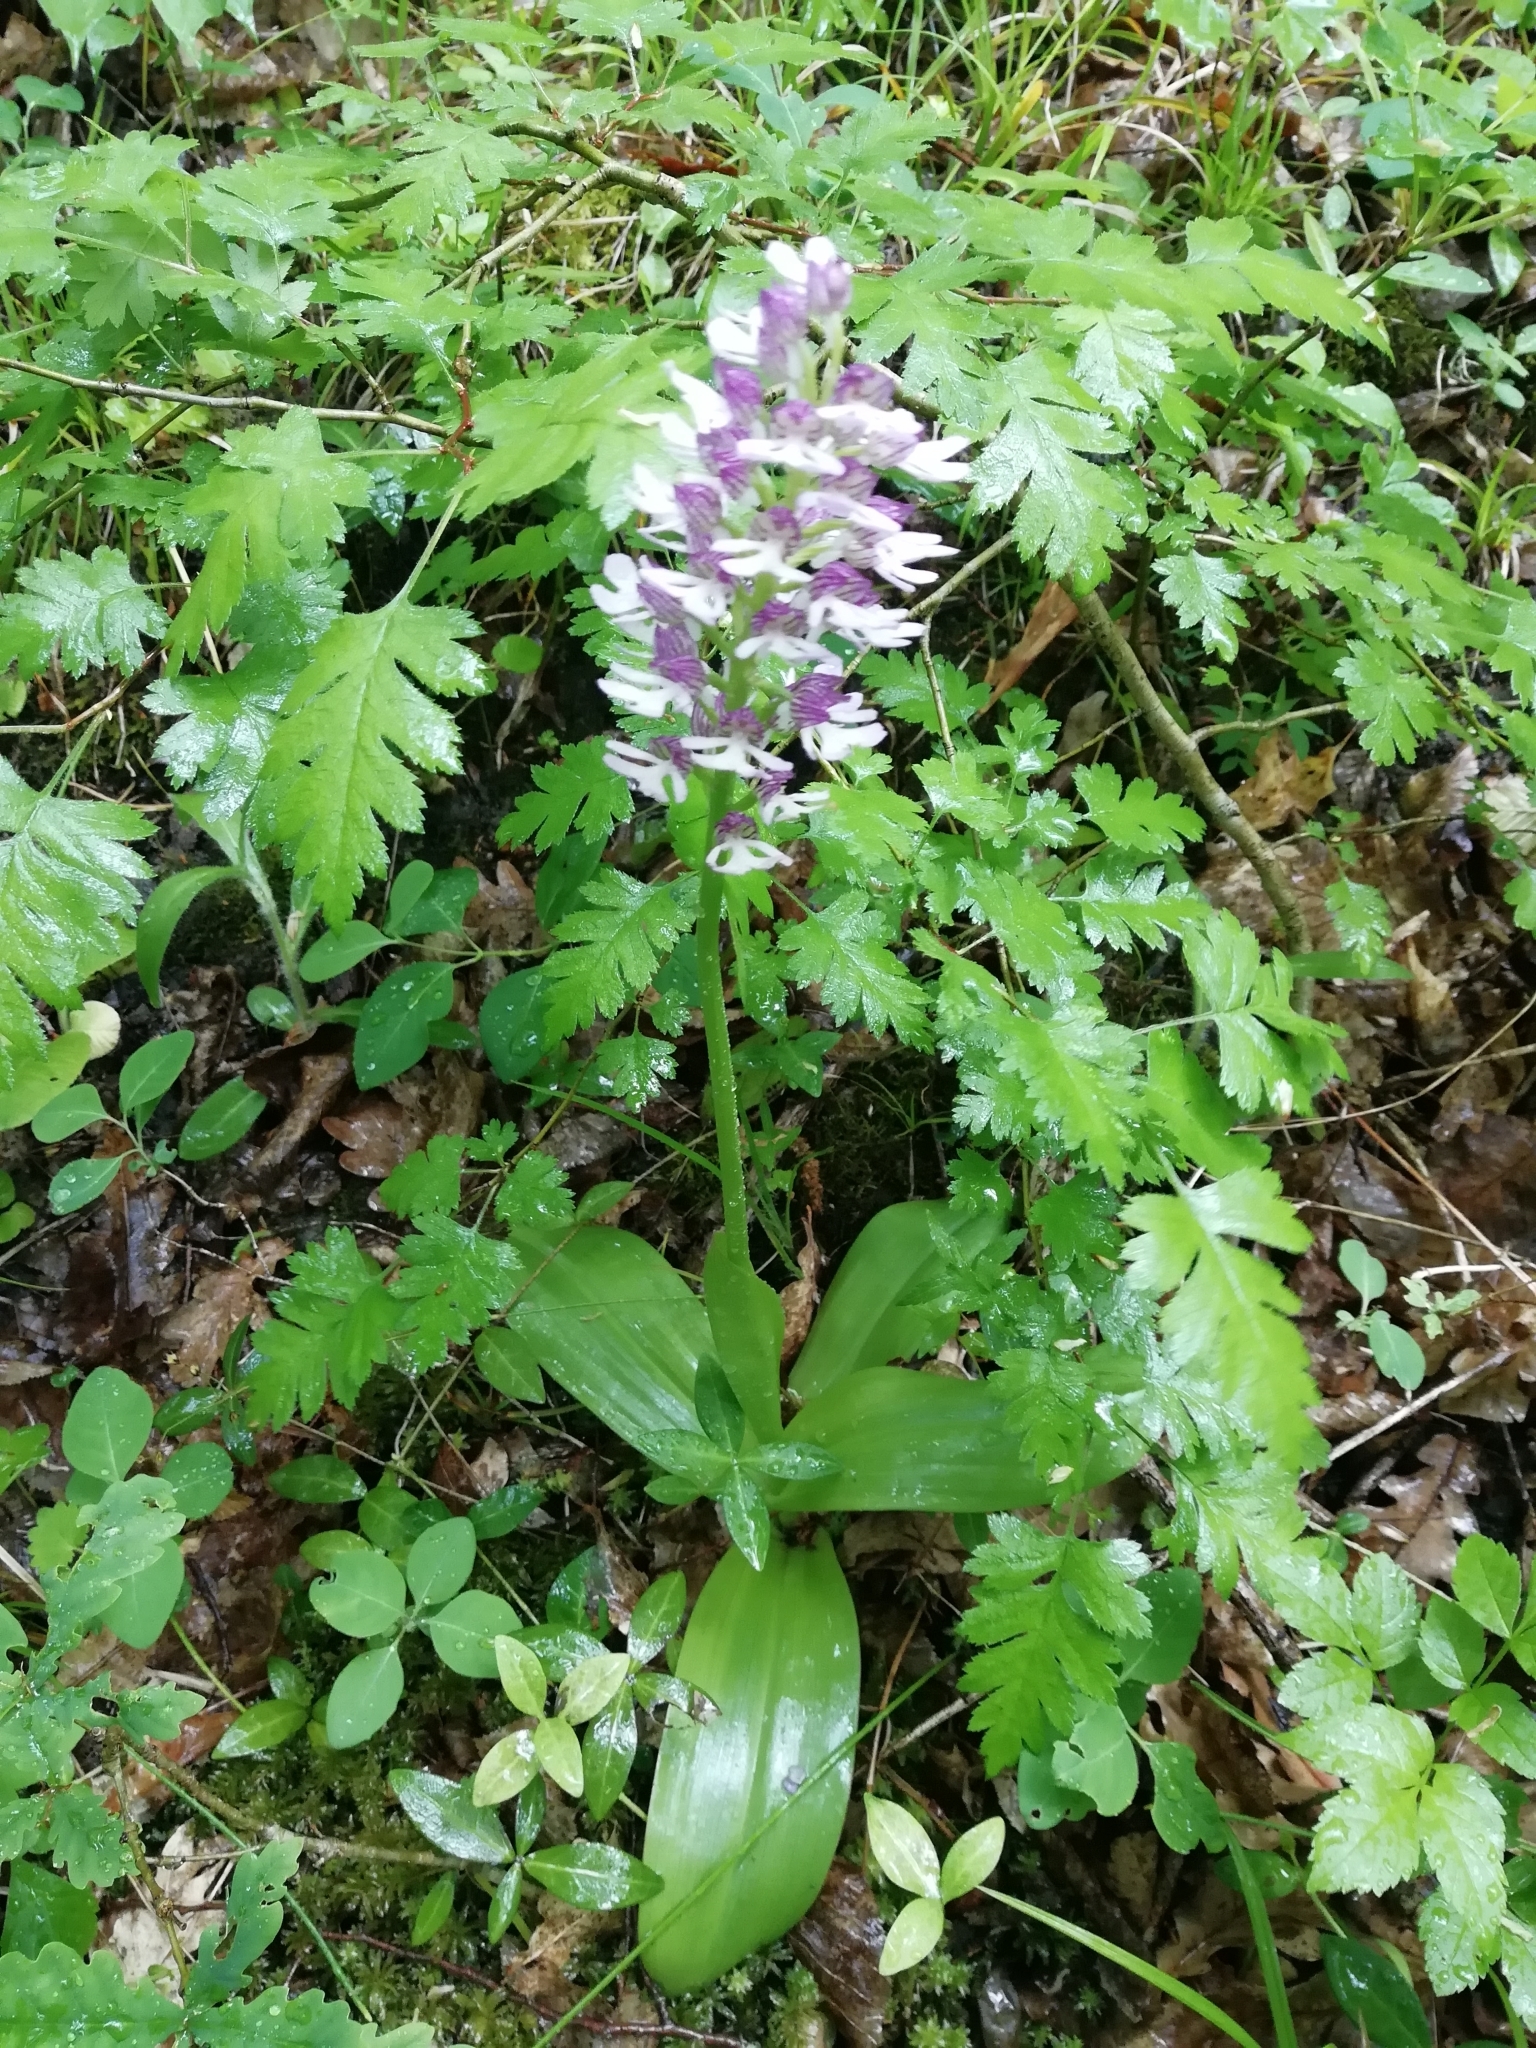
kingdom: Plantae
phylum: Tracheophyta
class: Liliopsida
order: Asparagales
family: Orchidaceae
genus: Orchis
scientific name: Orchis purpurea
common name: Lady orchid
